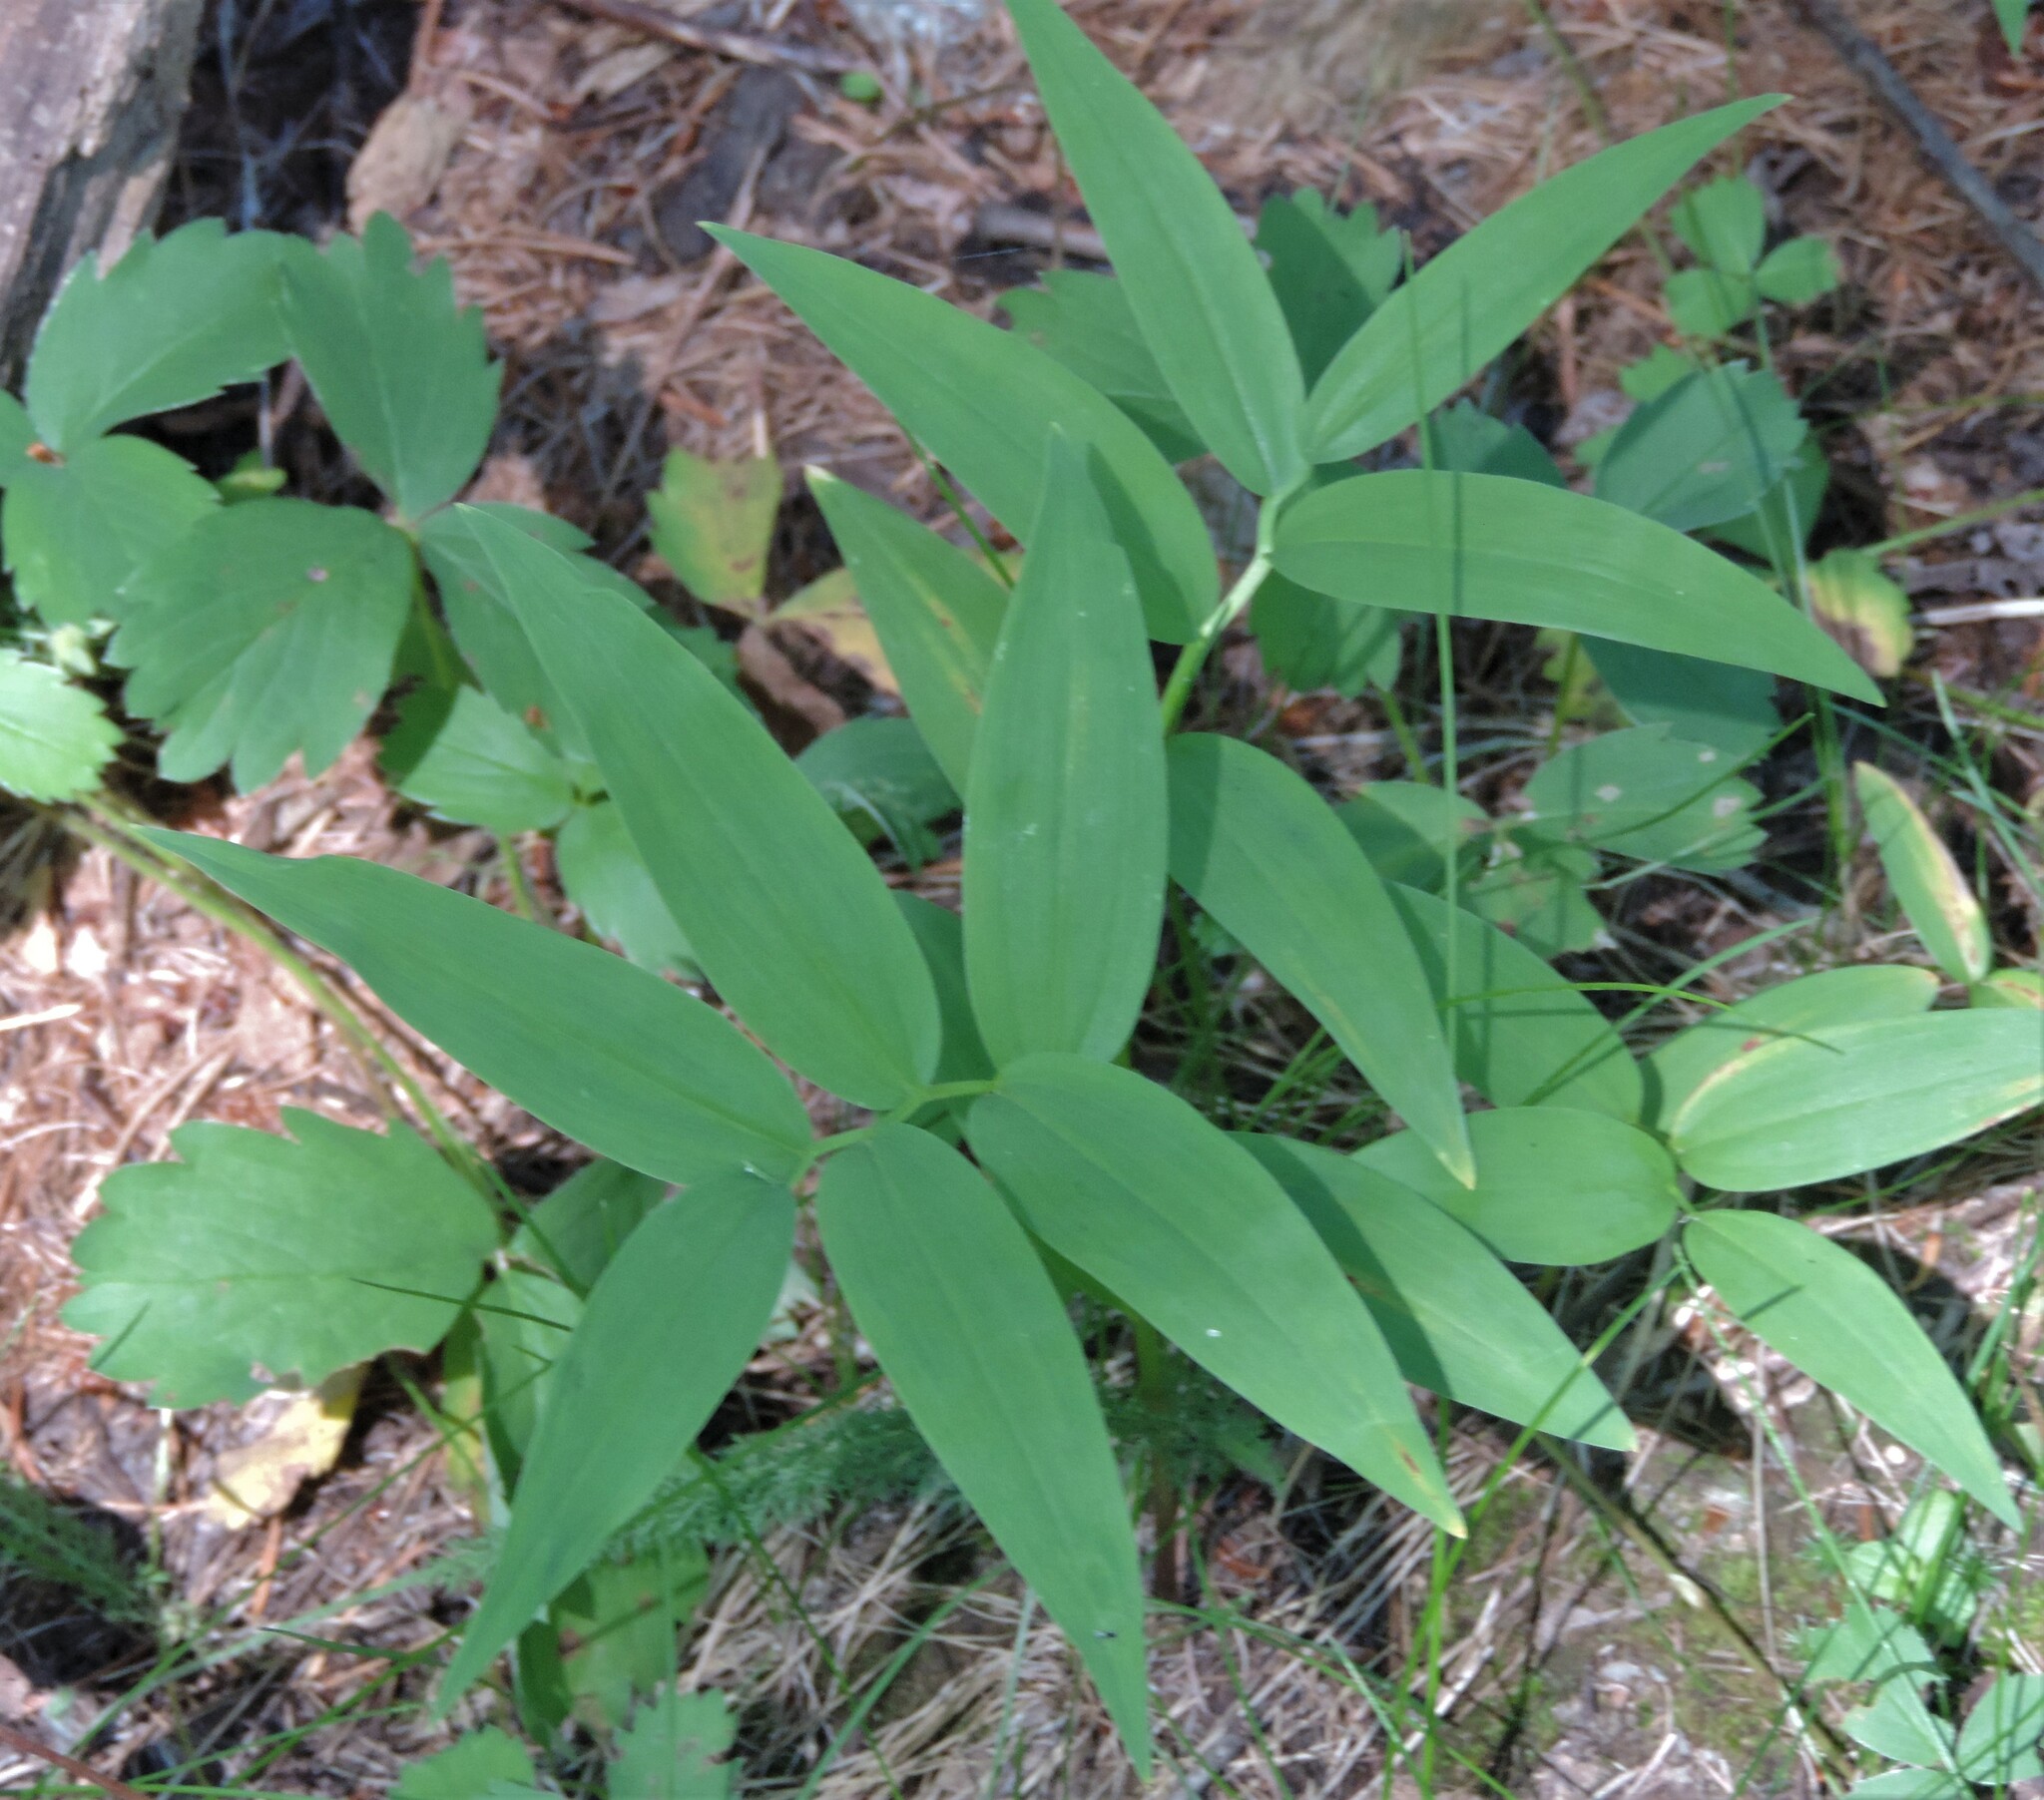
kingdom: Plantae
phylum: Tracheophyta
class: Liliopsida
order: Asparagales
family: Asparagaceae
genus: Maianthemum
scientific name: Maianthemum stellatum
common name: Little false solomon's seal
